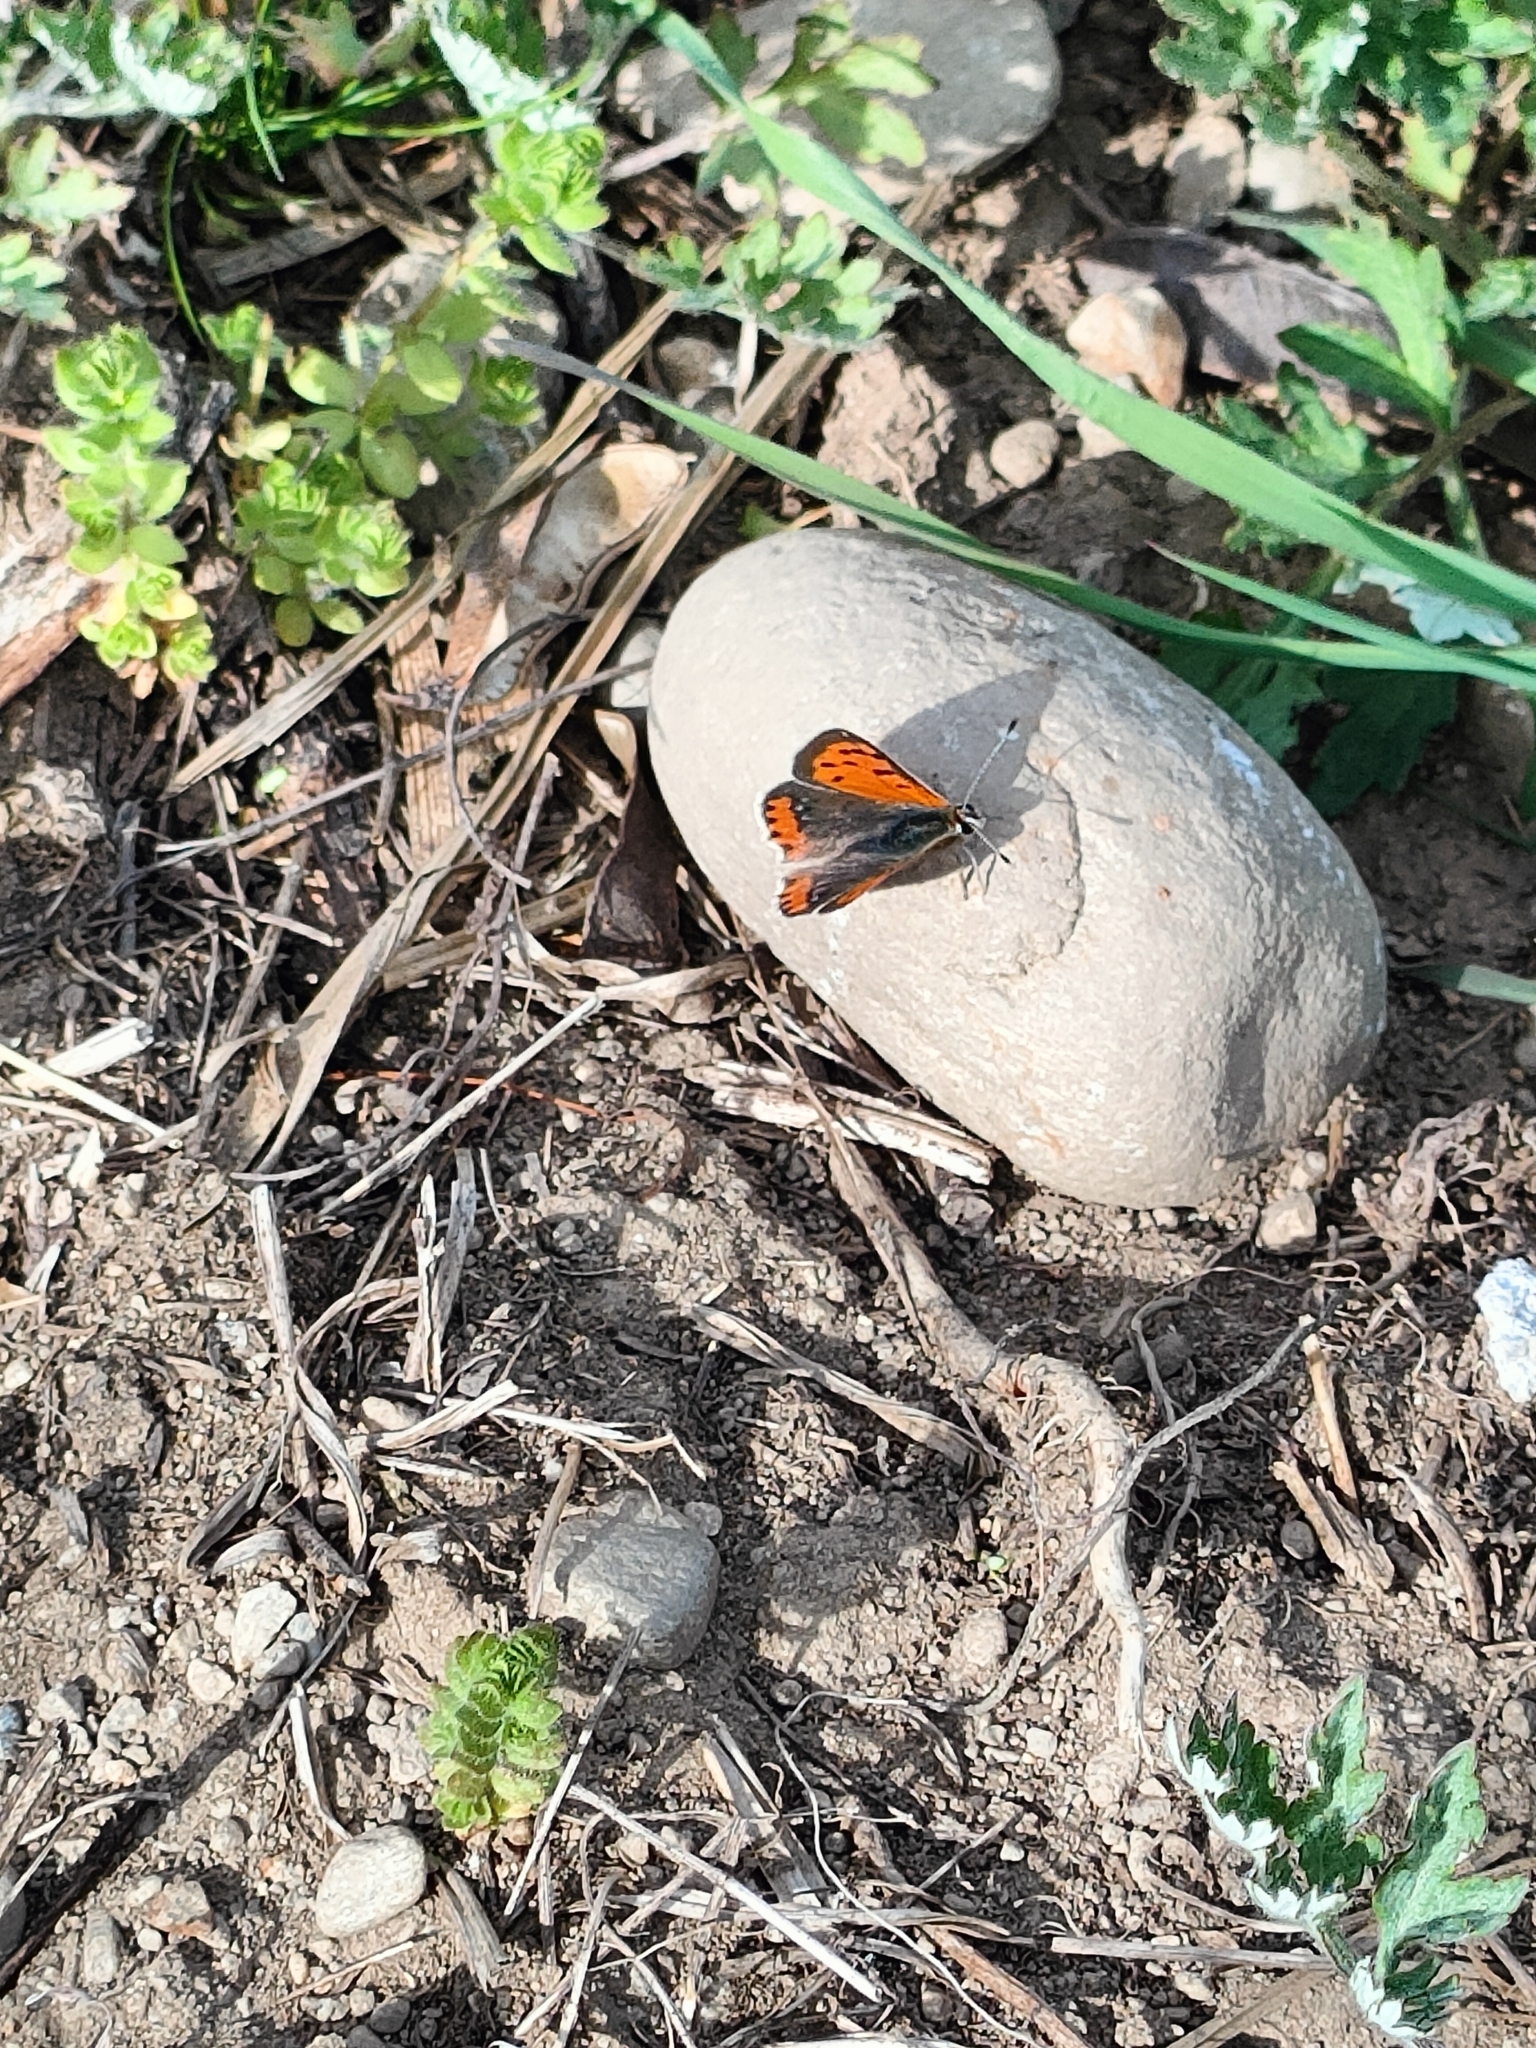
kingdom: Animalia
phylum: Arthropoda
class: Insecta
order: Lepidoptera
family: Lycaenidae
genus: Lycaena
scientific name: Lycaena phlaeas
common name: Small copper
